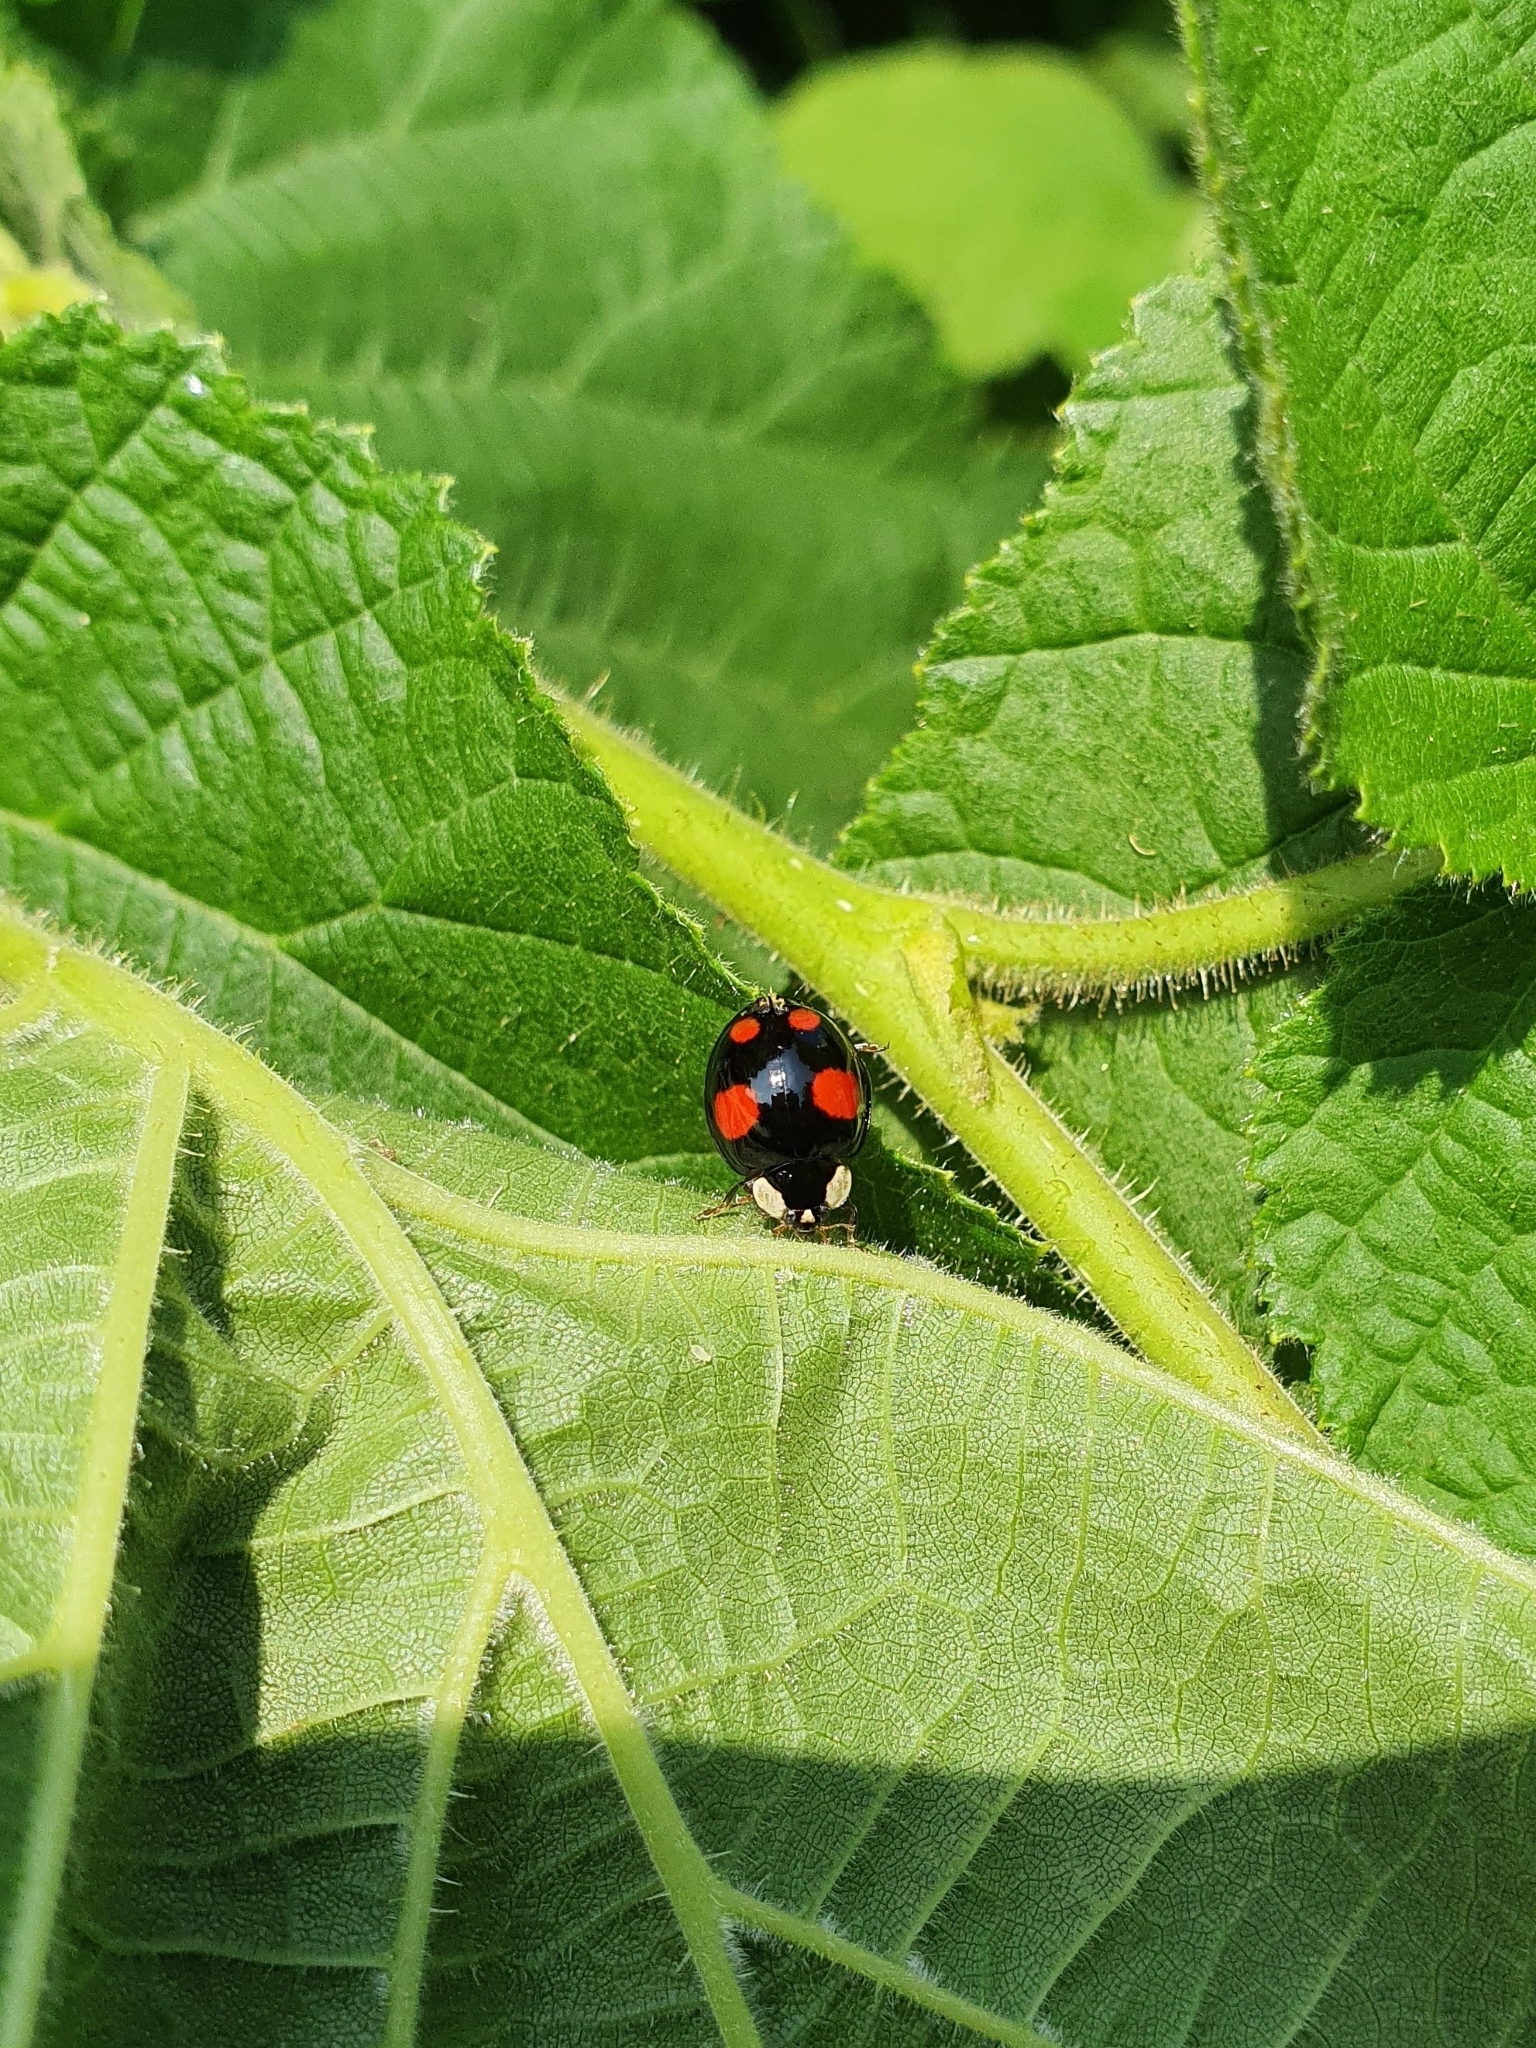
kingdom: Animalia
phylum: Arthropoda
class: Insecta
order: Coleoptera
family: Coccinellidae
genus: Harmonia
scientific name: Harmonia axyridis
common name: Harlequin ladybird
